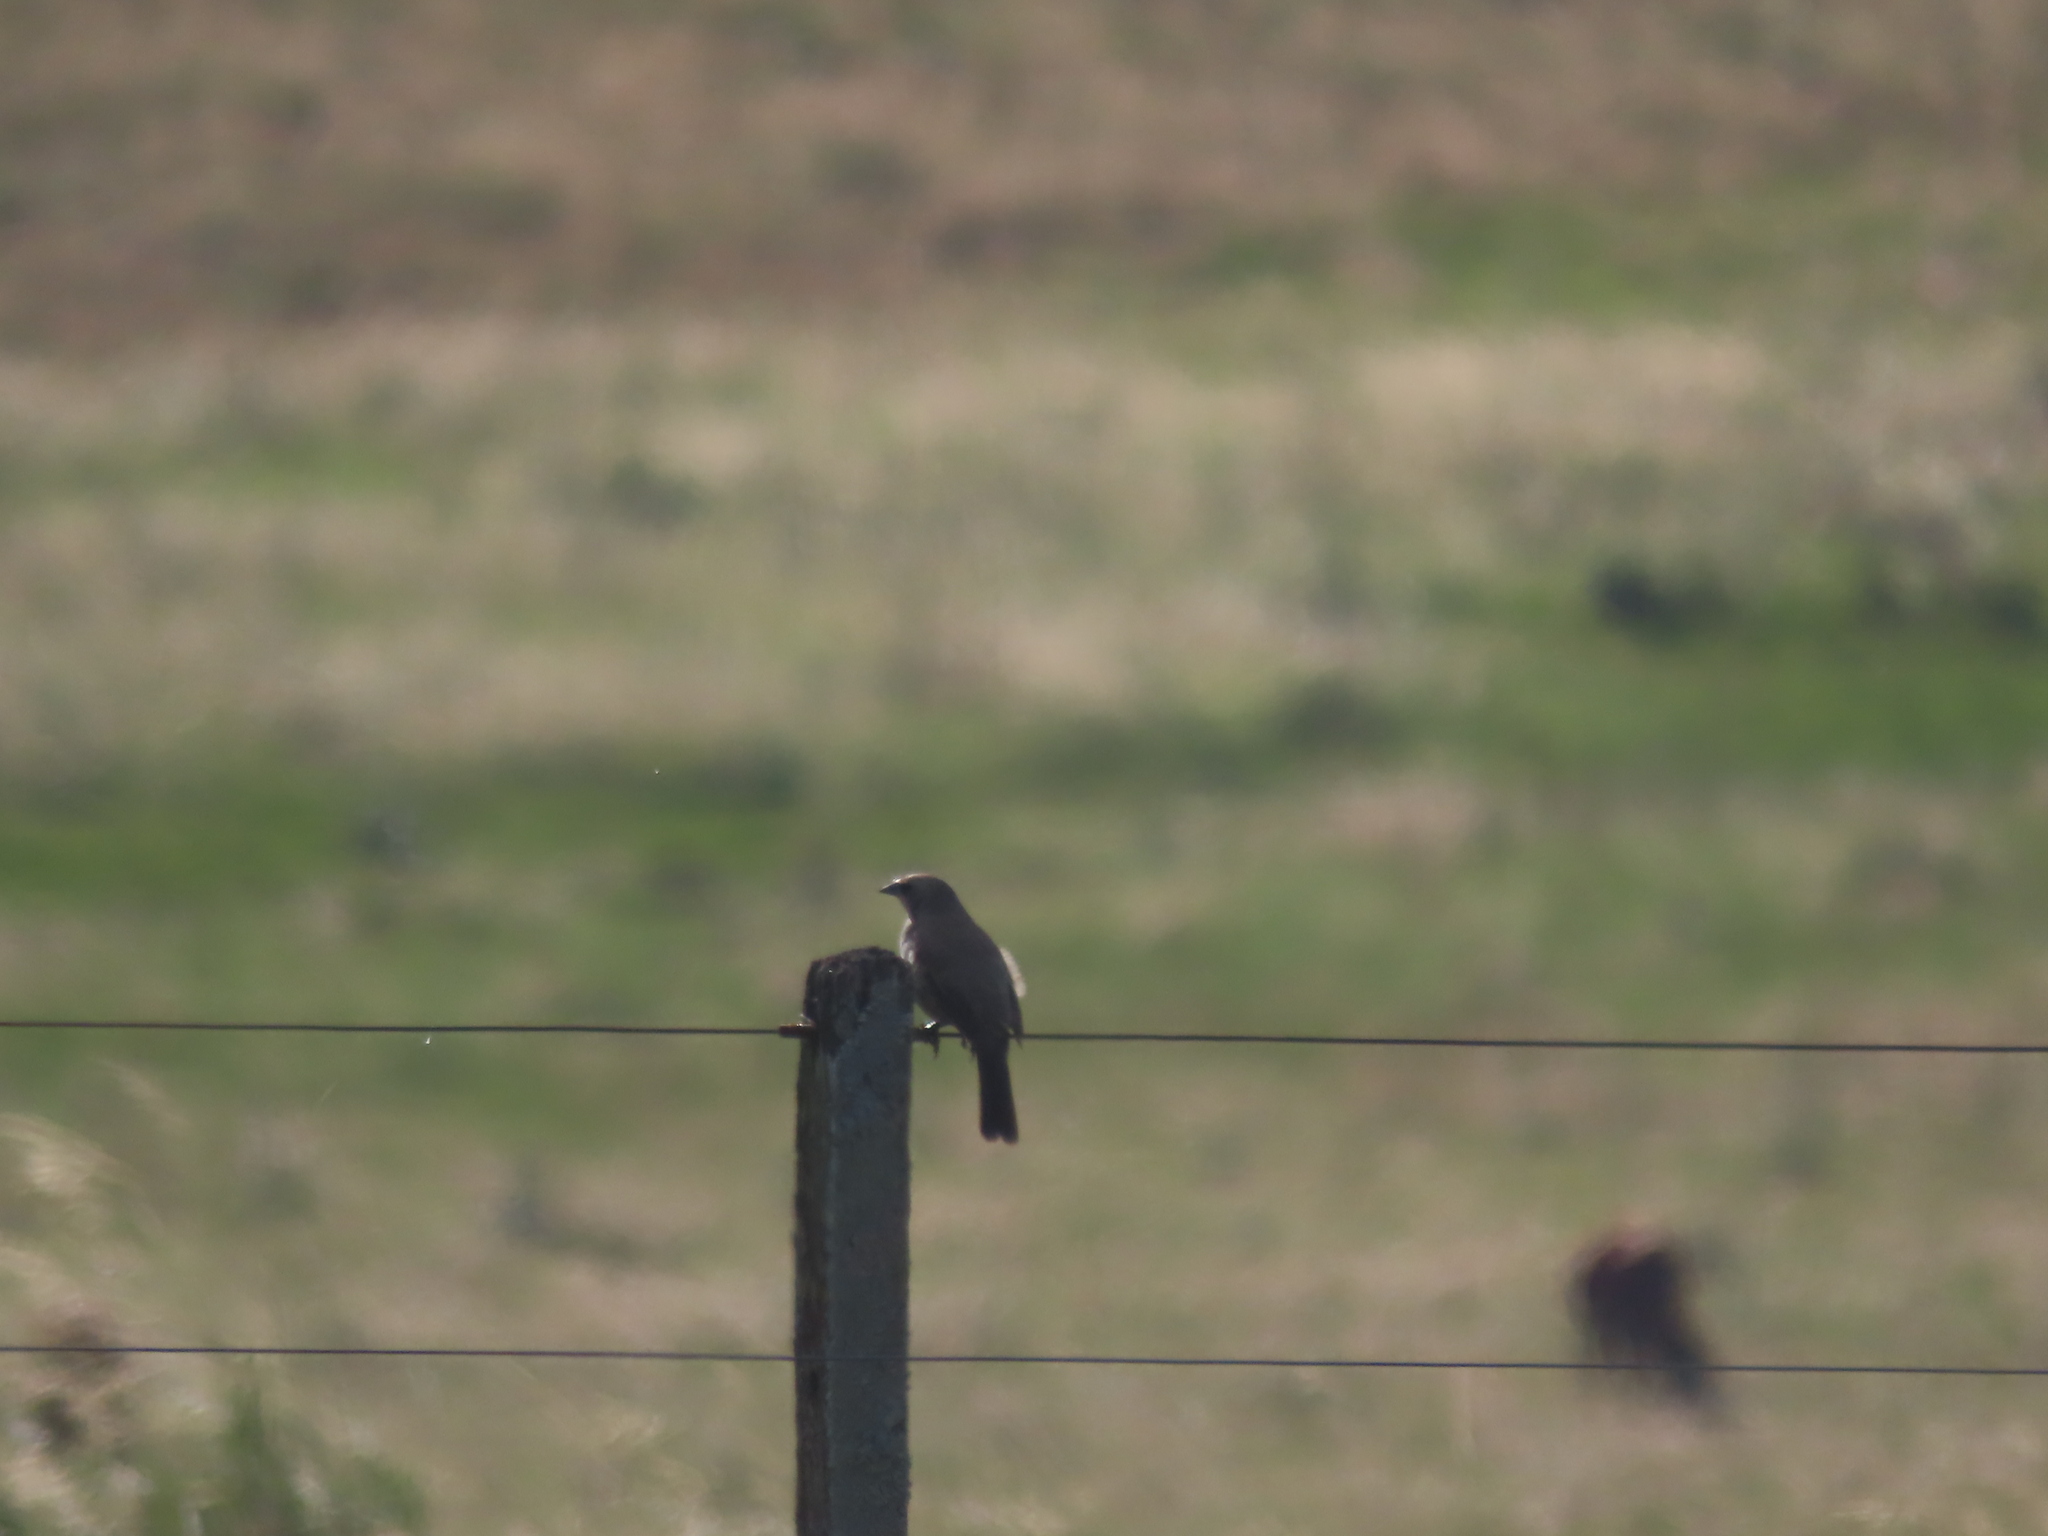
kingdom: Animalia
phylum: Chordata
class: Aves
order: Passeriformes
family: Icteridae
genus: Agelaioides
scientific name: Agelaioides badius
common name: Baywing
